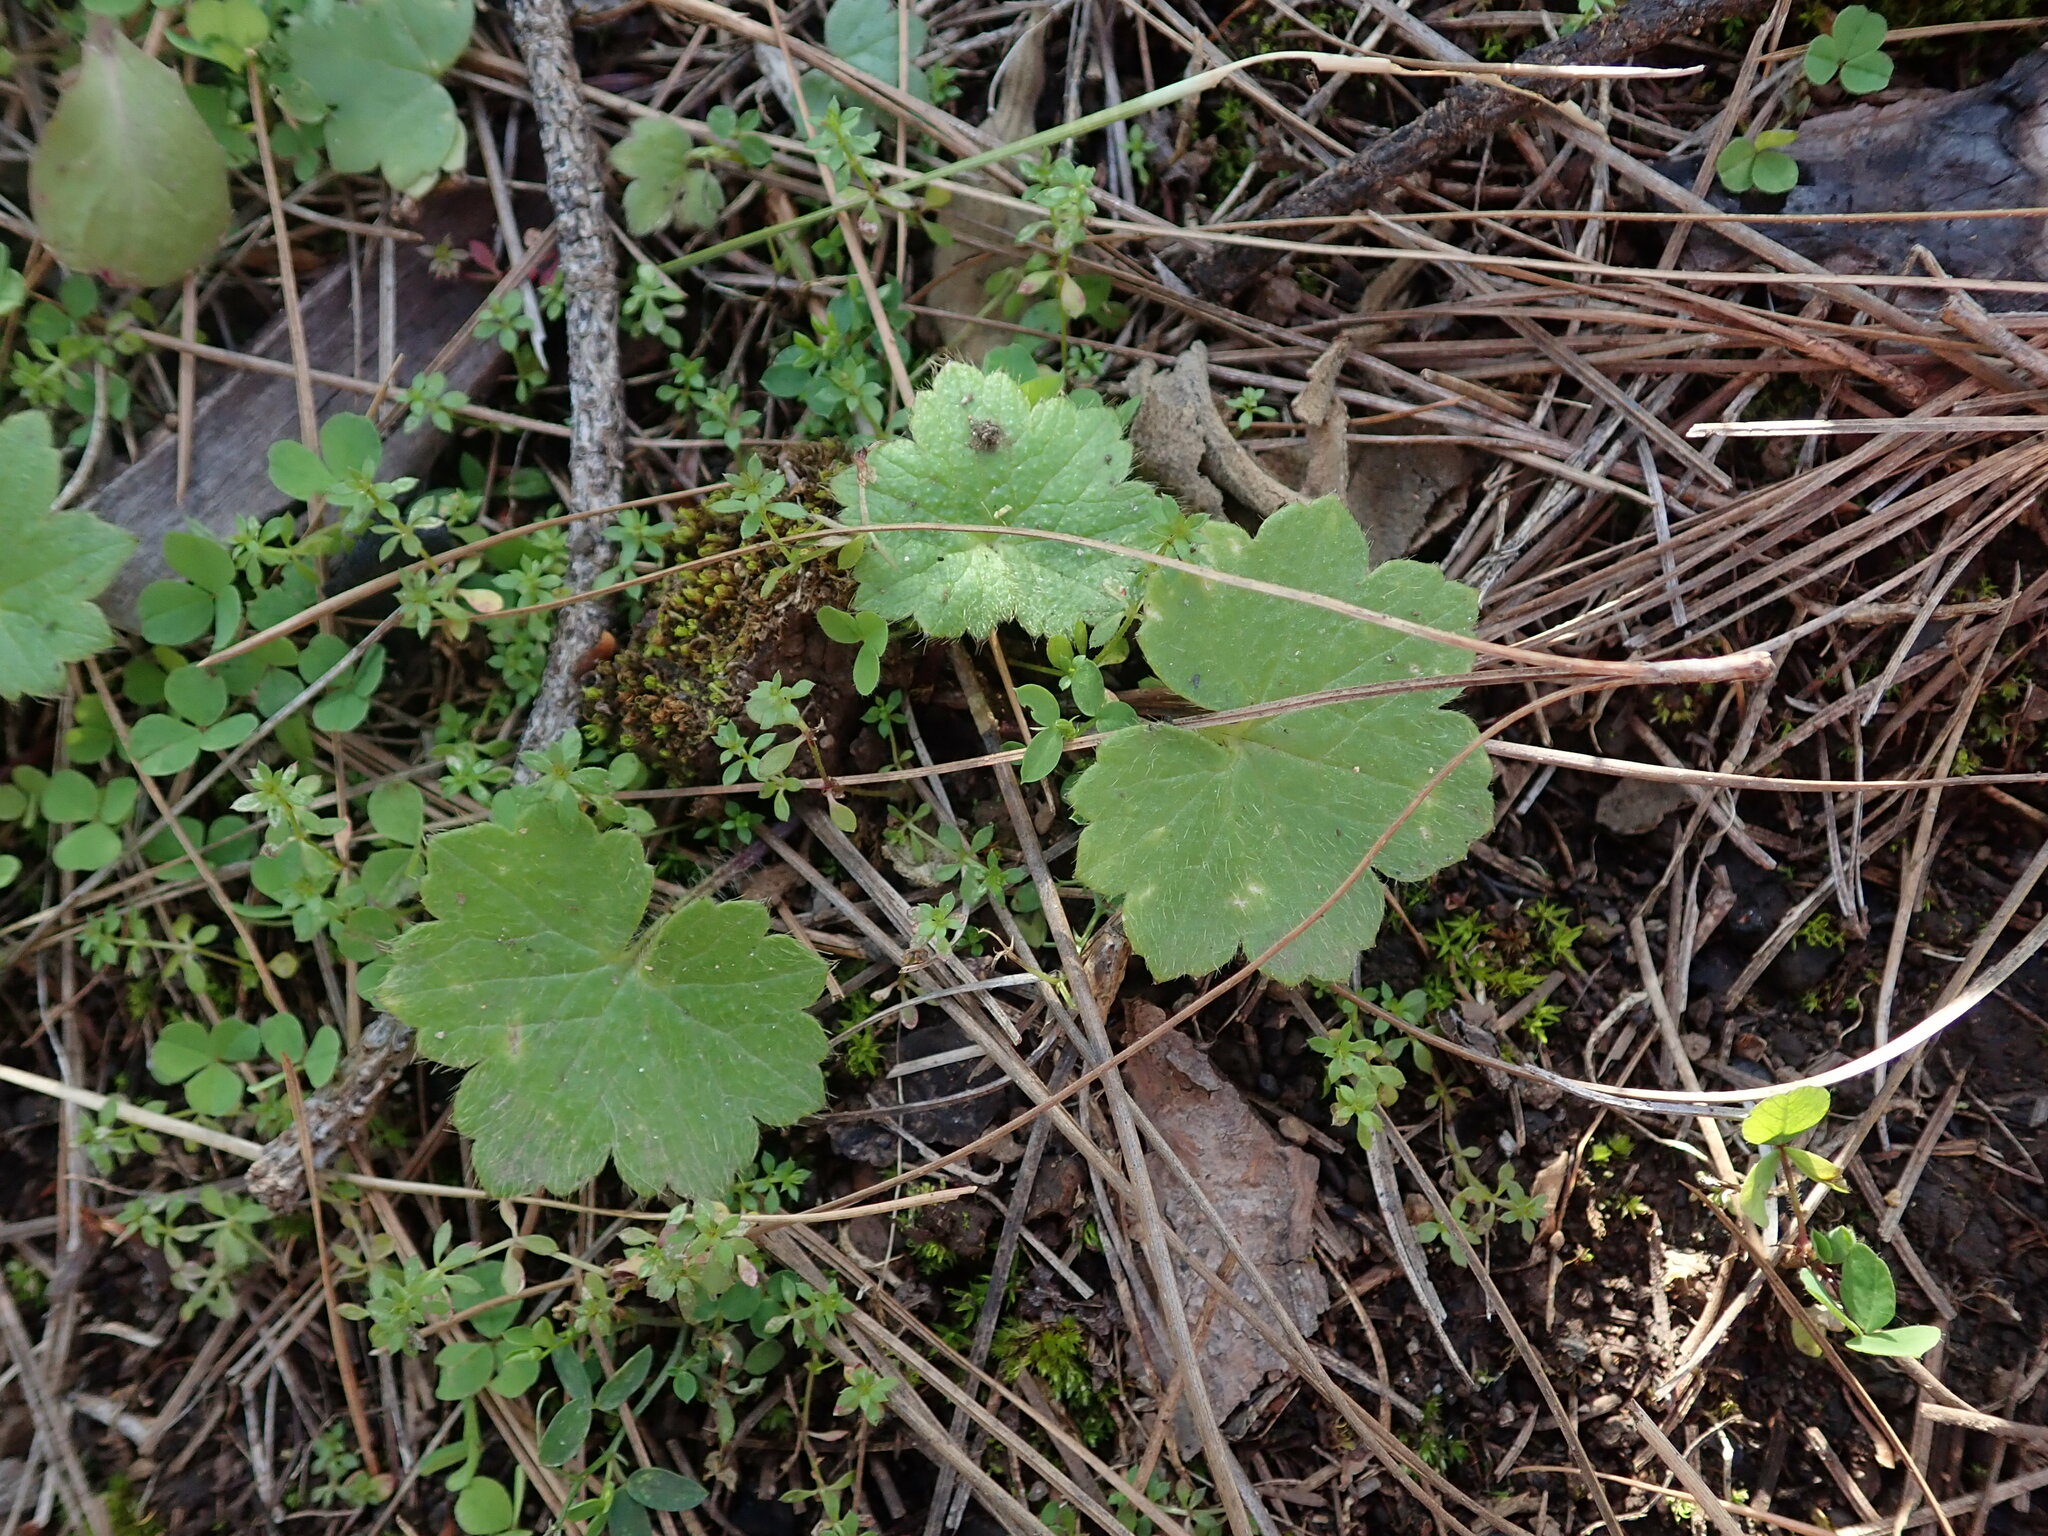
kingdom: Plantae
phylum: Tracheophyta
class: Magnoliopsida
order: Ranunculales
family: Ranunculaceae
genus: Ranunculus
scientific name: Ranunculus cortusifolius
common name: Azores buttercup
